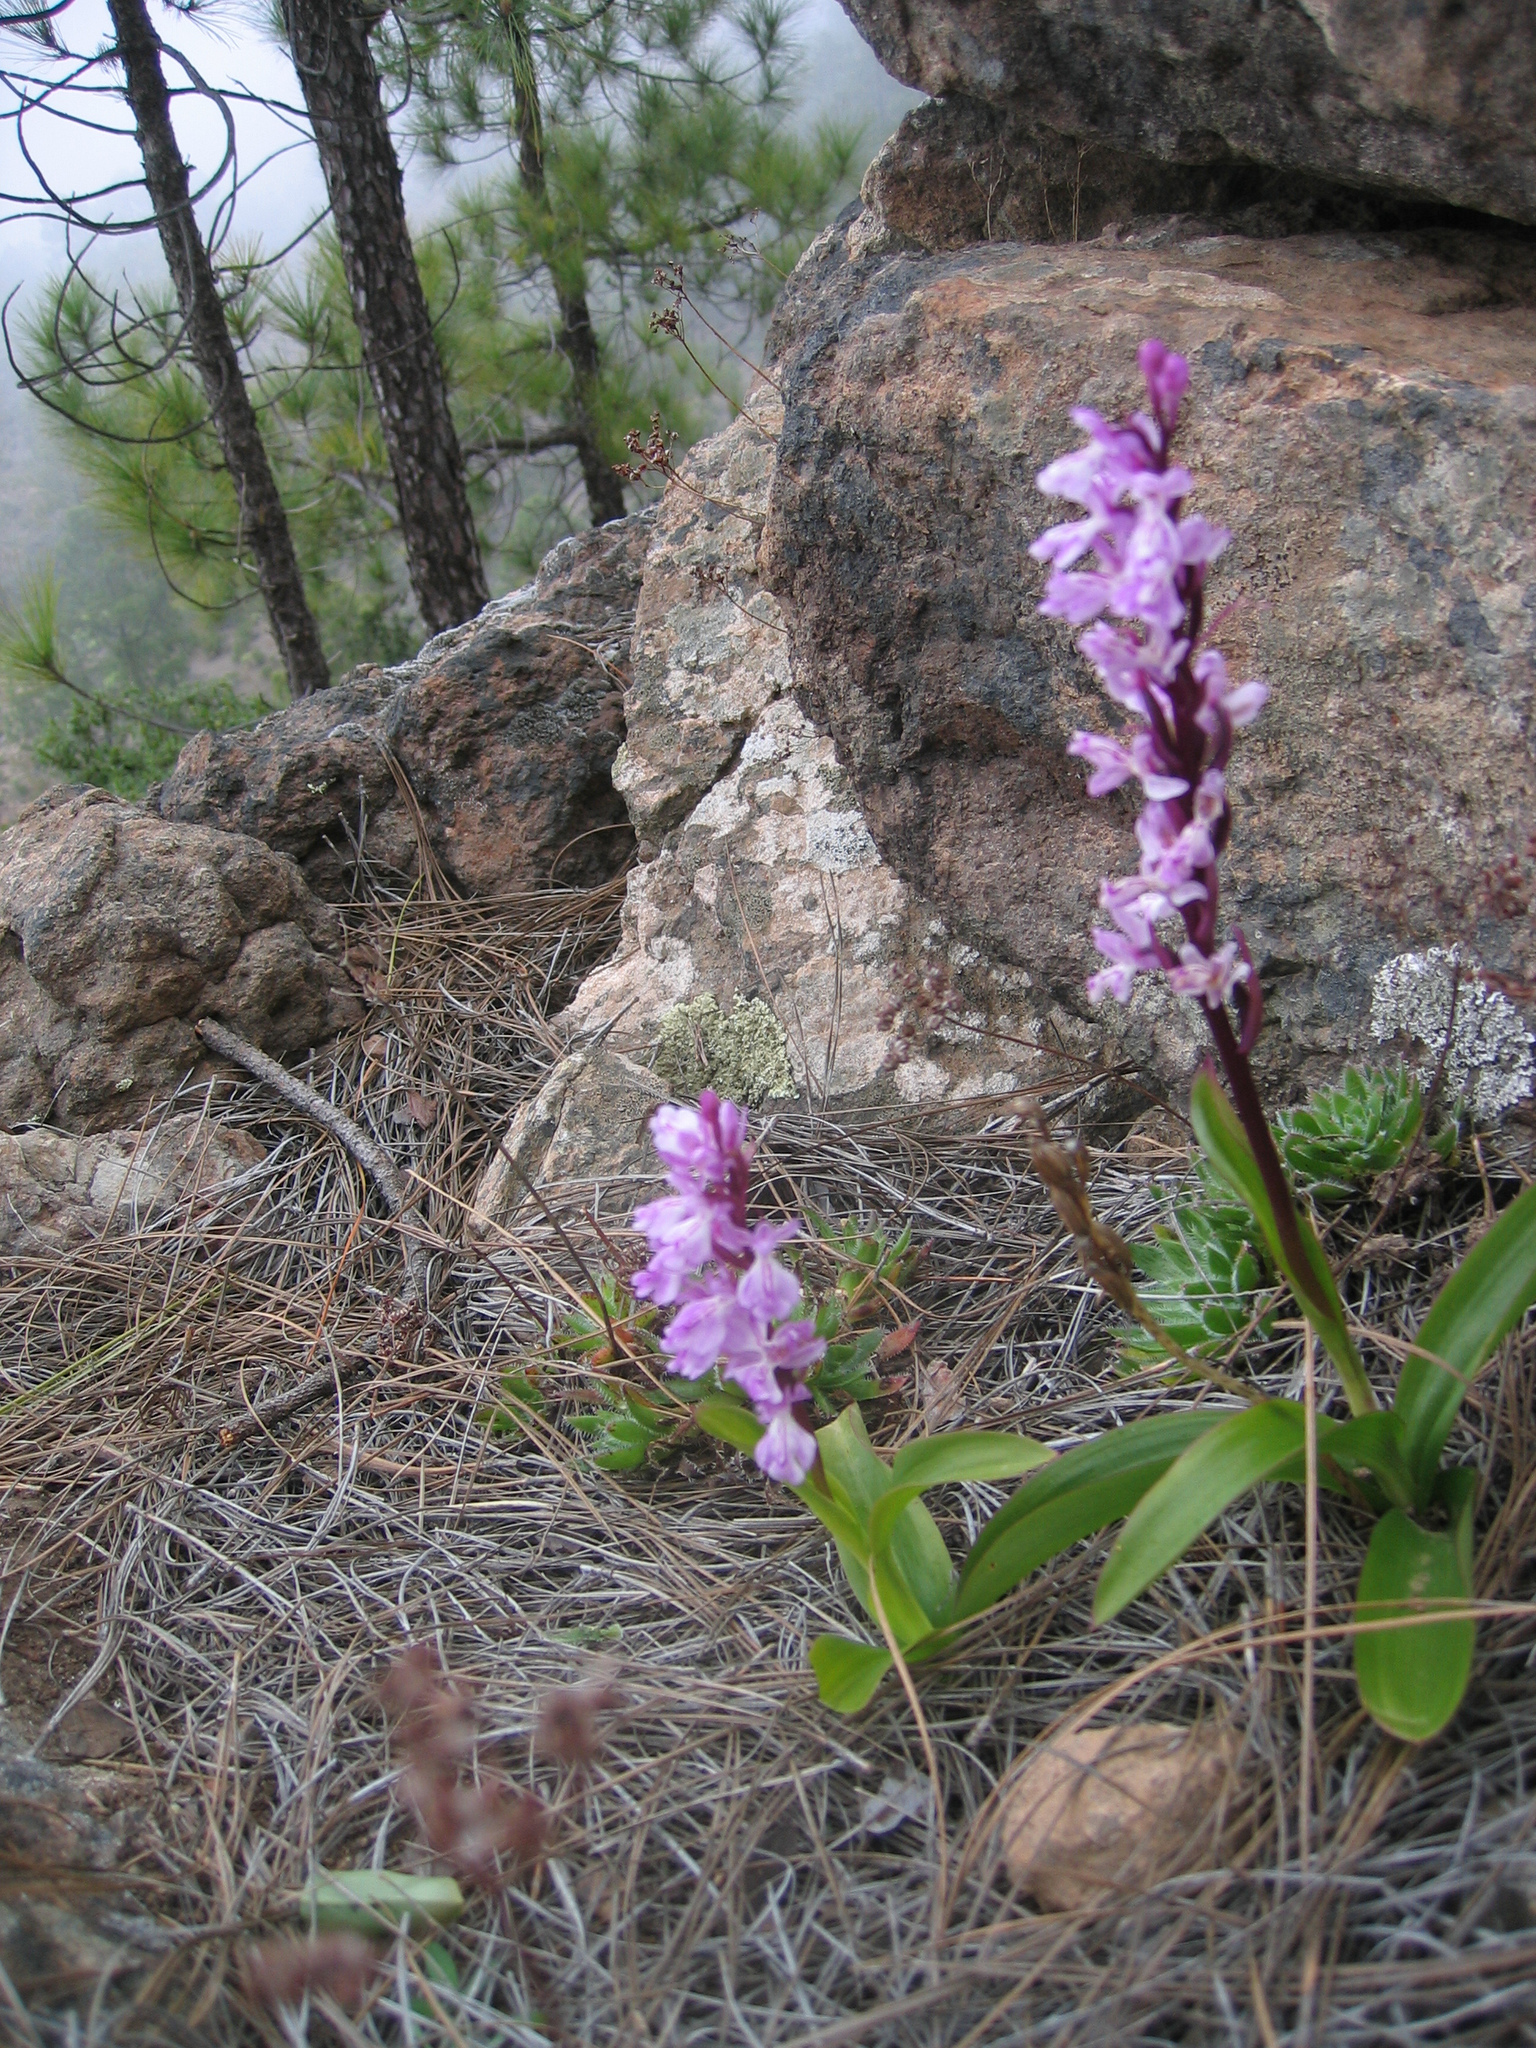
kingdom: Plantae
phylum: Tracheophyta
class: Liliopsida
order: Asparagales
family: Orchidaceae
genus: Orchis
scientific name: Orchis canariensis
